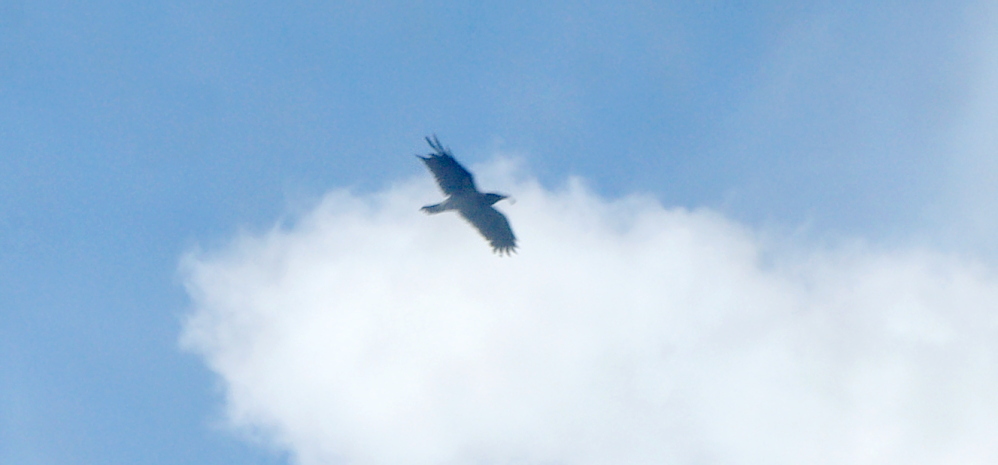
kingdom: Animalia
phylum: Chordata
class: Aves
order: Passeriformes
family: Corvidae
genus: Corvus
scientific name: Corvus cornix
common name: Hooded crow
